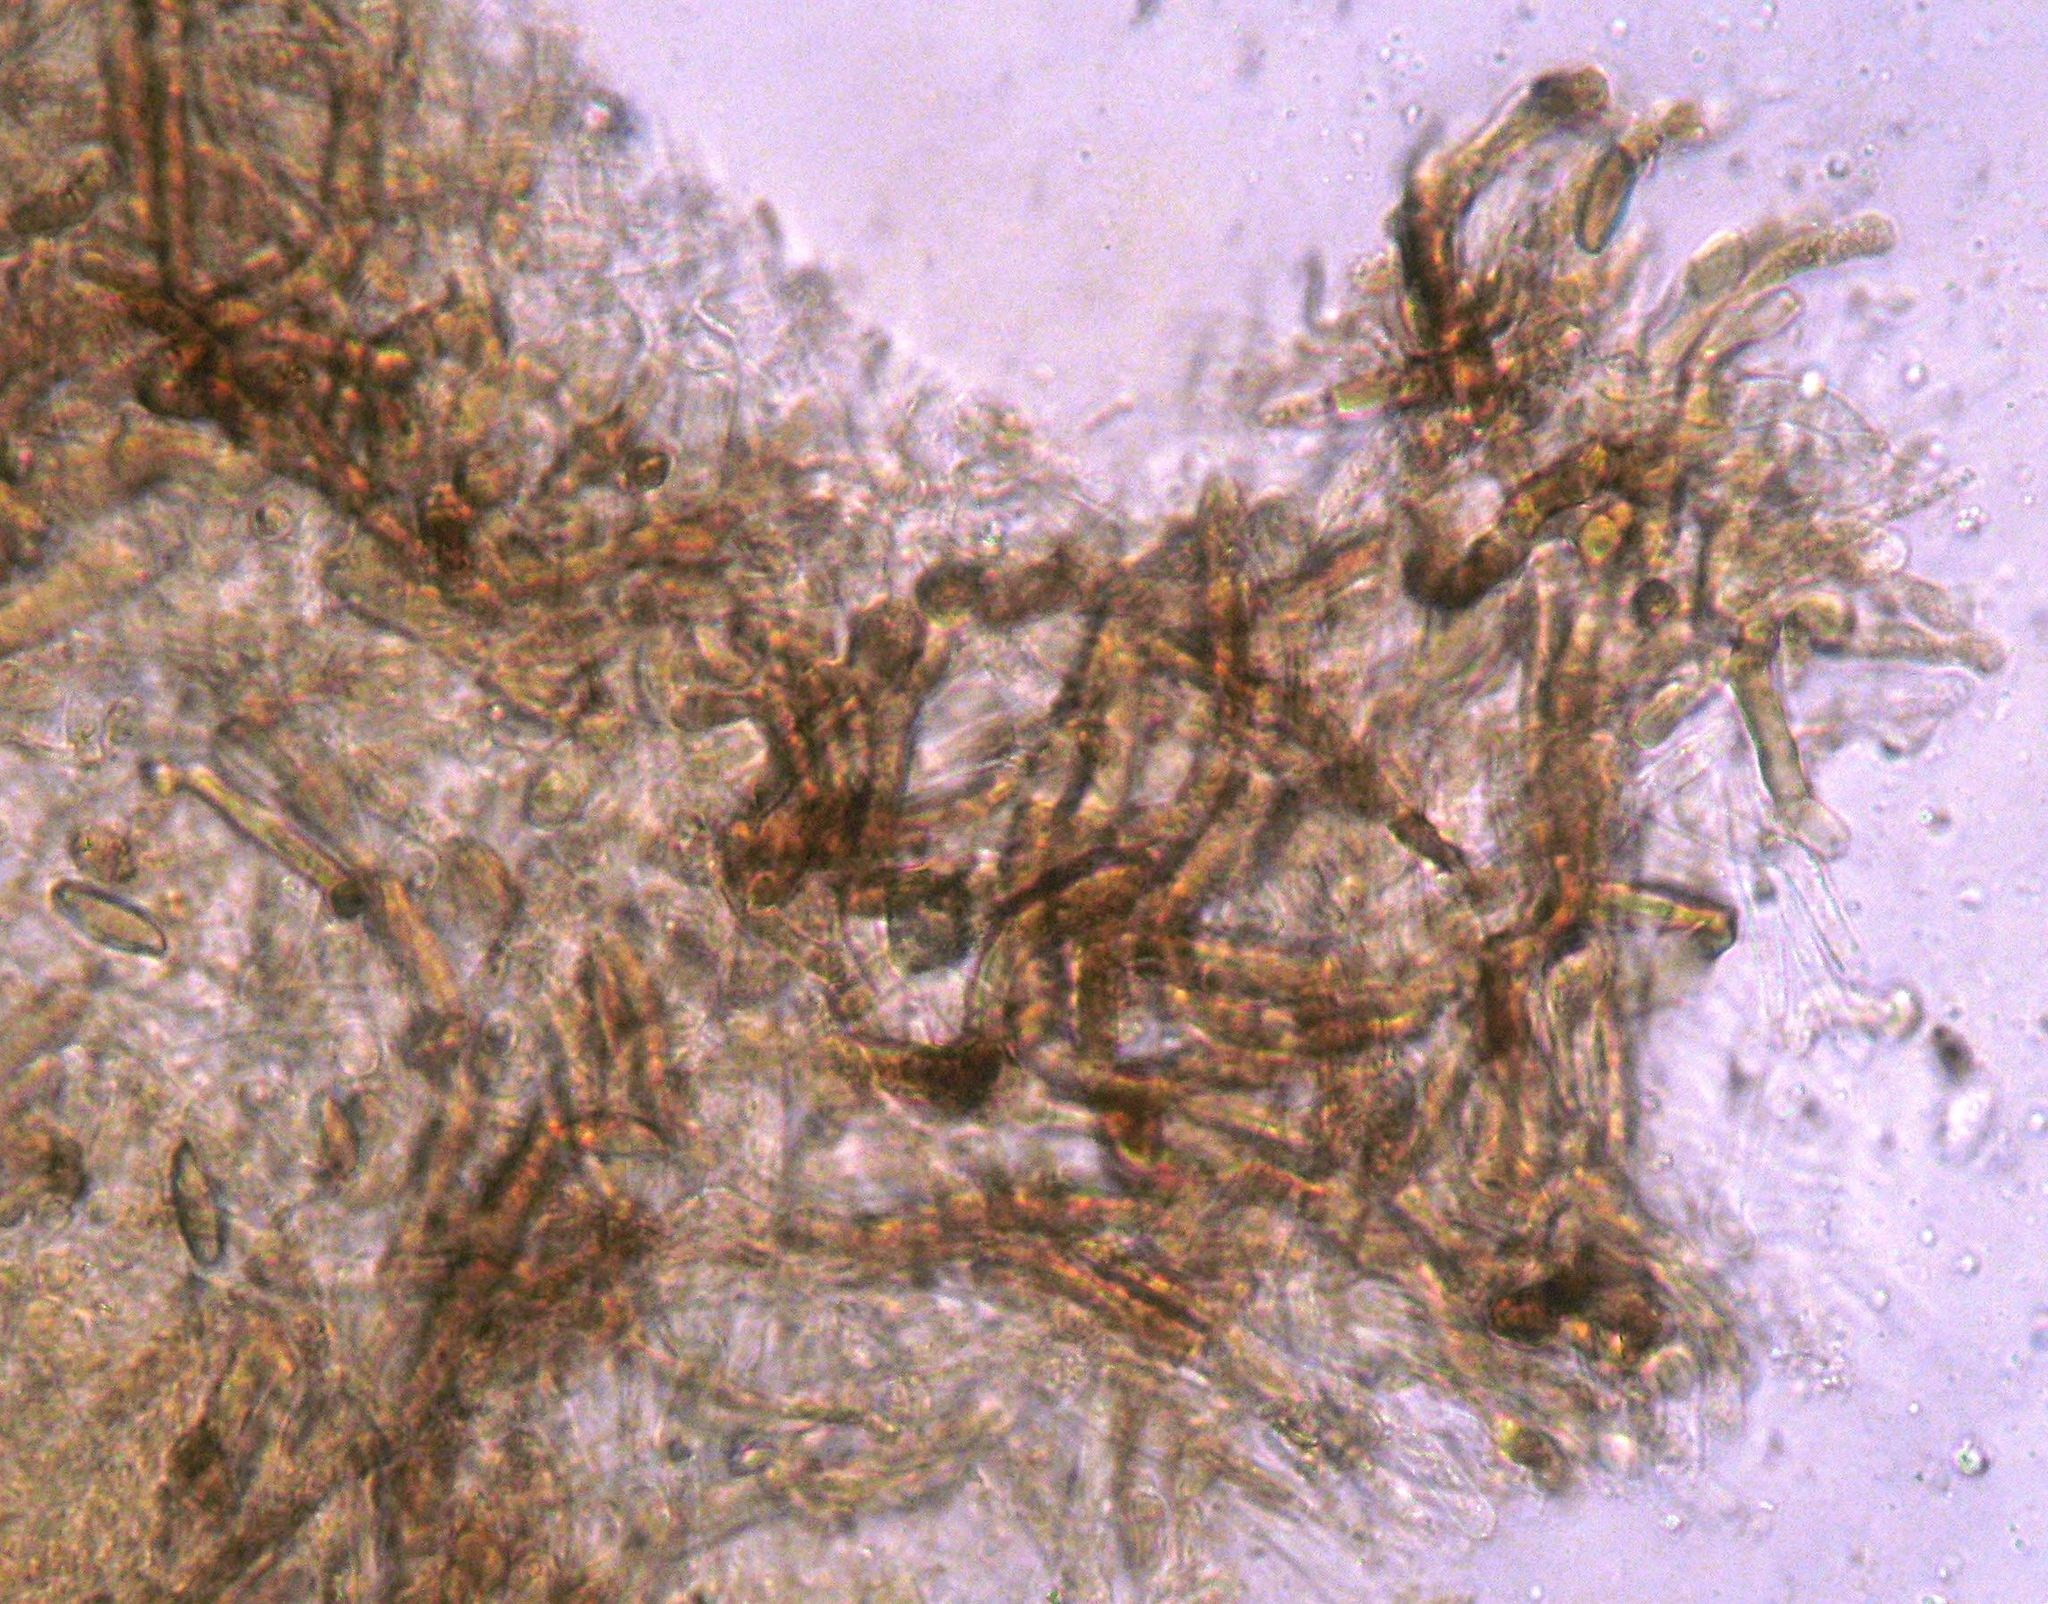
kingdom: Fungi
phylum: Basidiomycota
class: Agaricomycetes
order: Boletales
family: Boletaceae
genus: Leccinum
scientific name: Leccinum scabrum
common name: Blushing bolete
